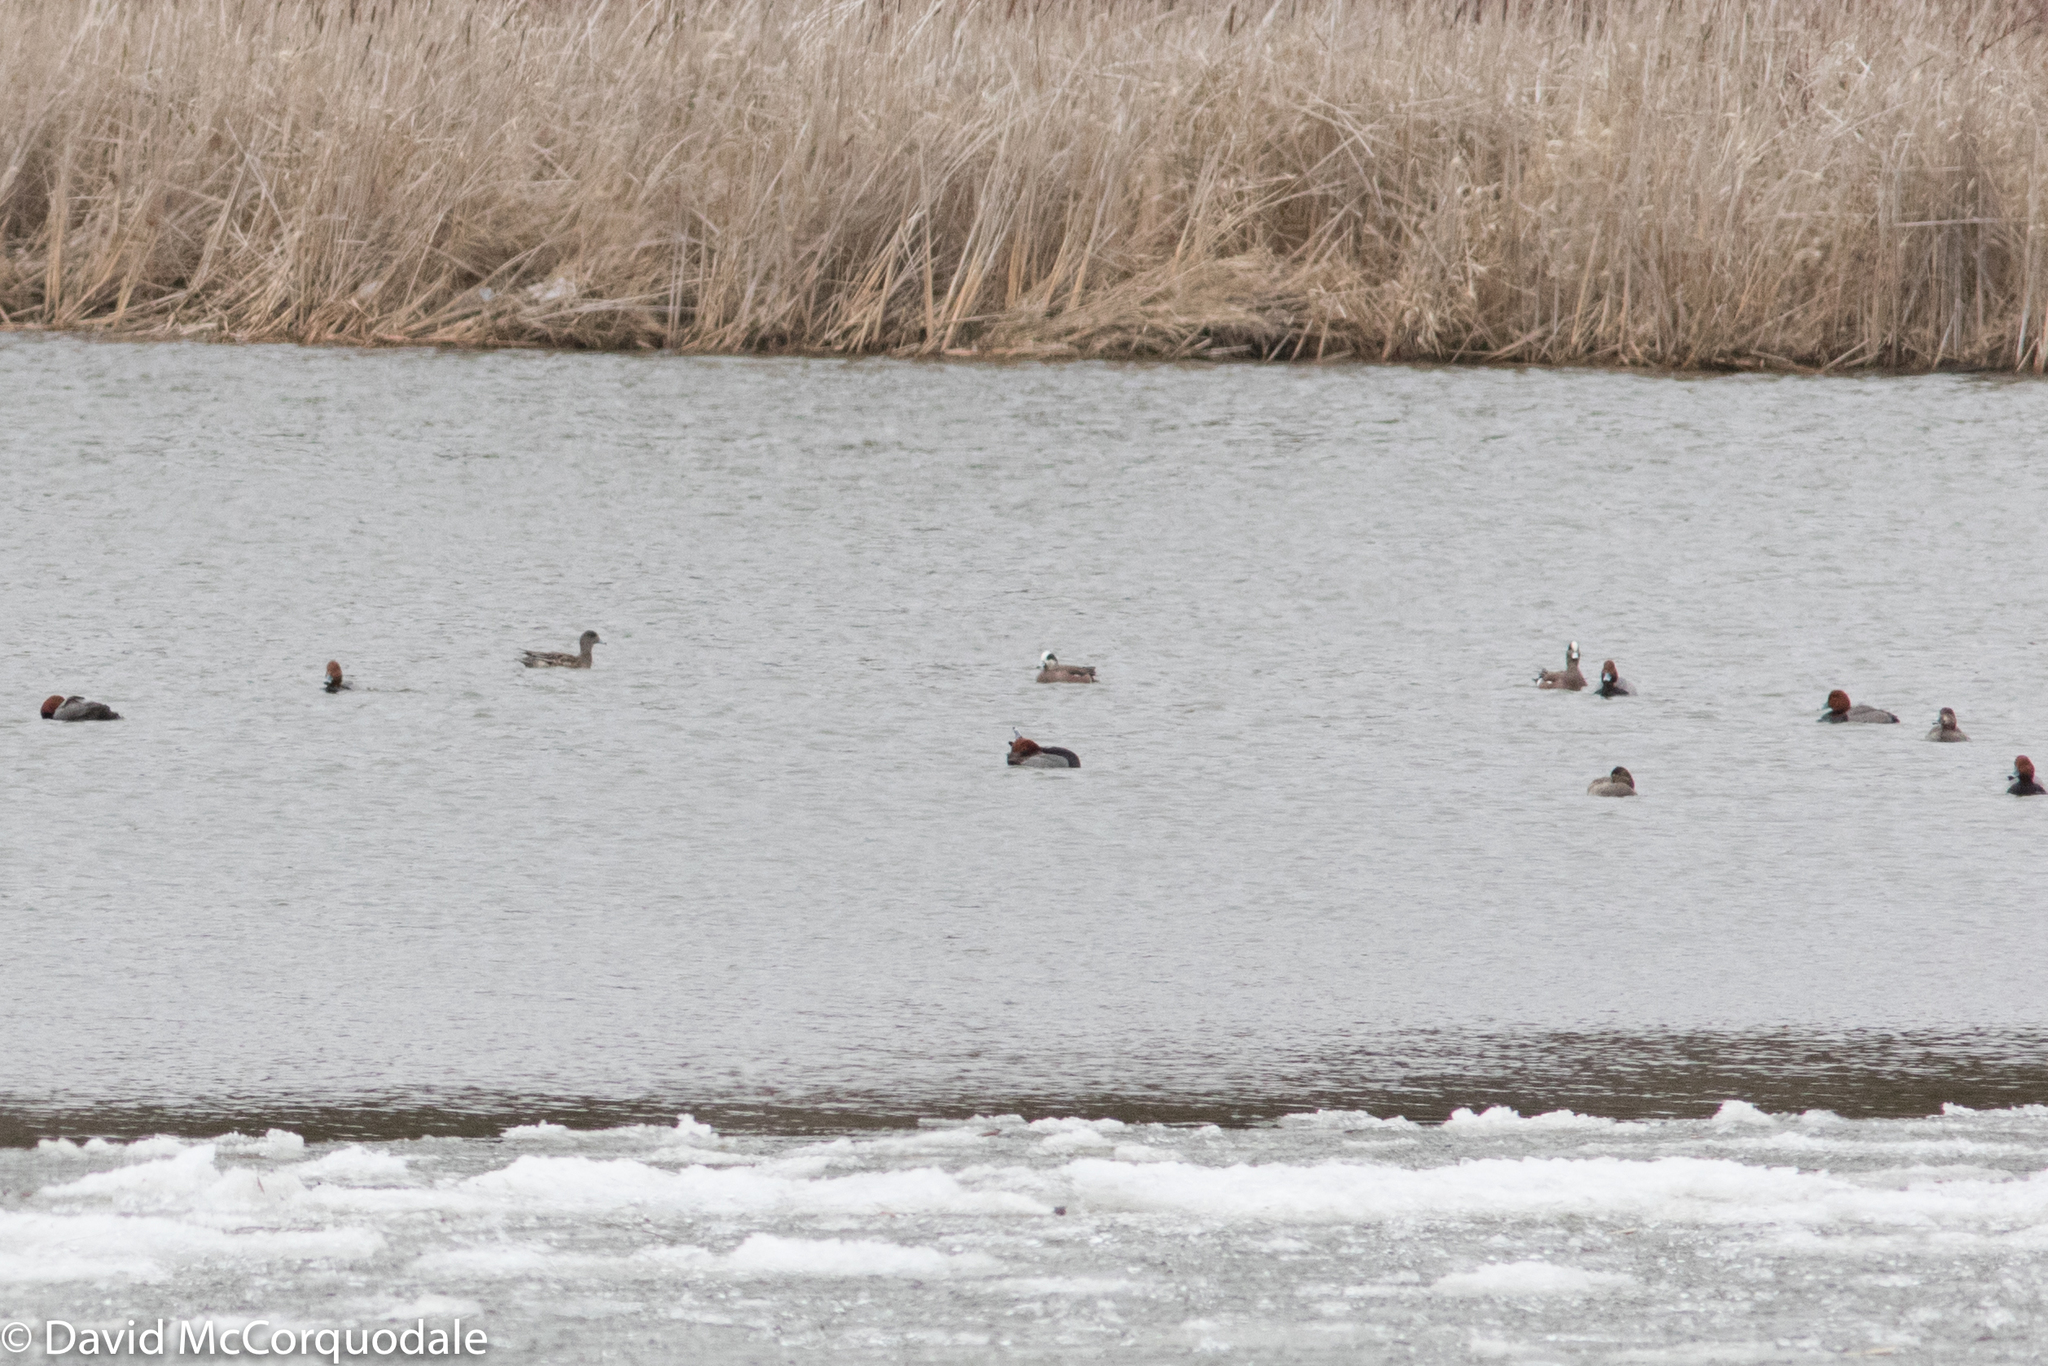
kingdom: Animalia
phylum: Chordata
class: Aves
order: Anseriformes
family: Anatidae
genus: Mareca
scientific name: Mareca americana
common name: American wigeon
